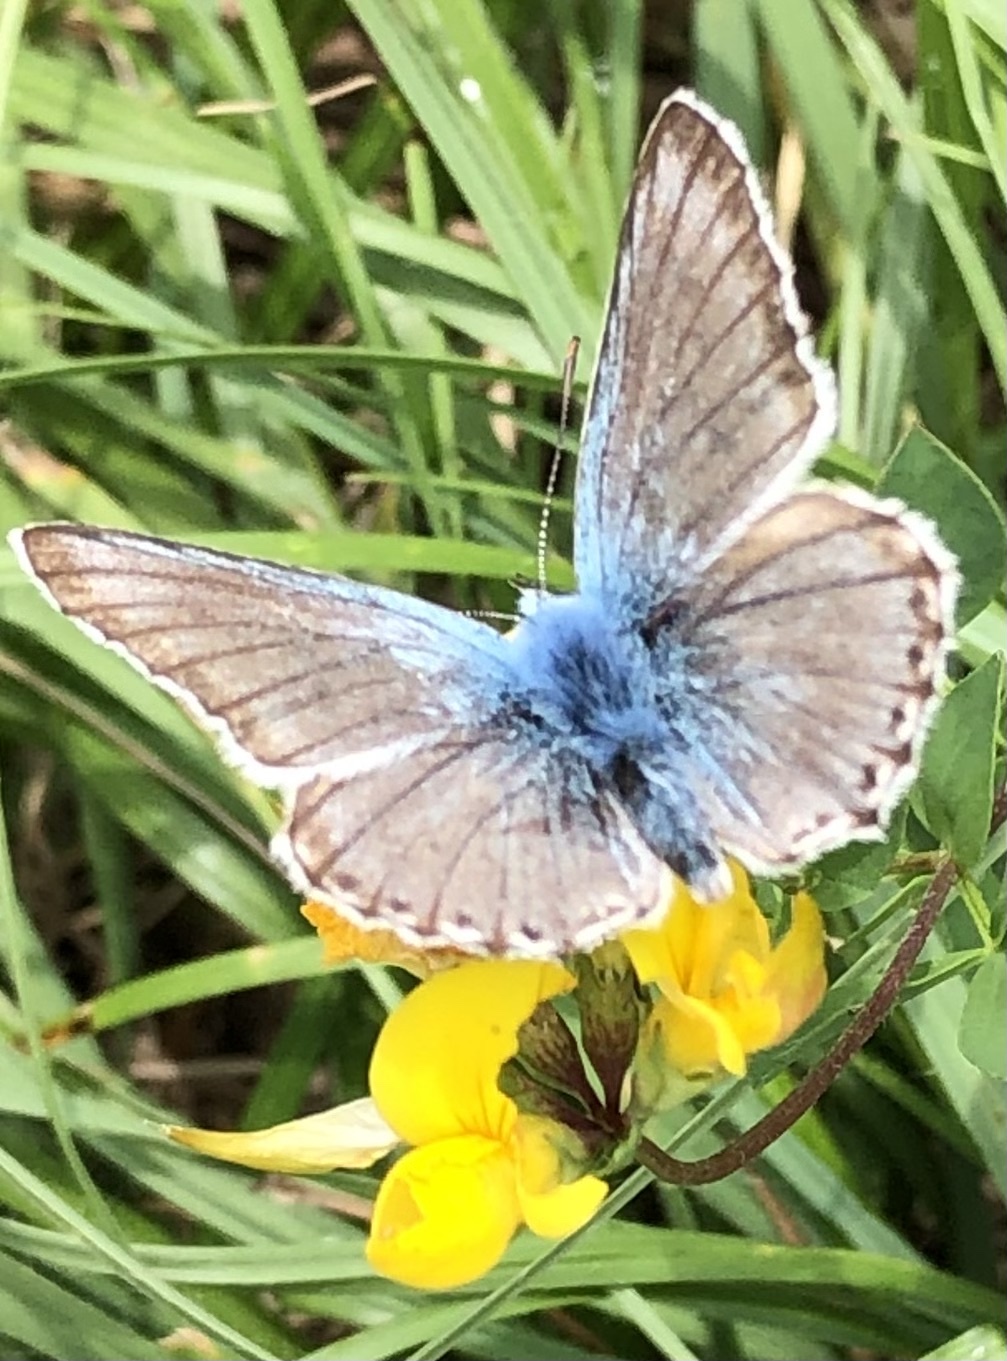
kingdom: Animalia
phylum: Arthropoda
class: Insecta
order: Lepidoptera
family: Lycaenidae
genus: Lysandra
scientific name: Lysandra coridon
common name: Chalkhill blue
